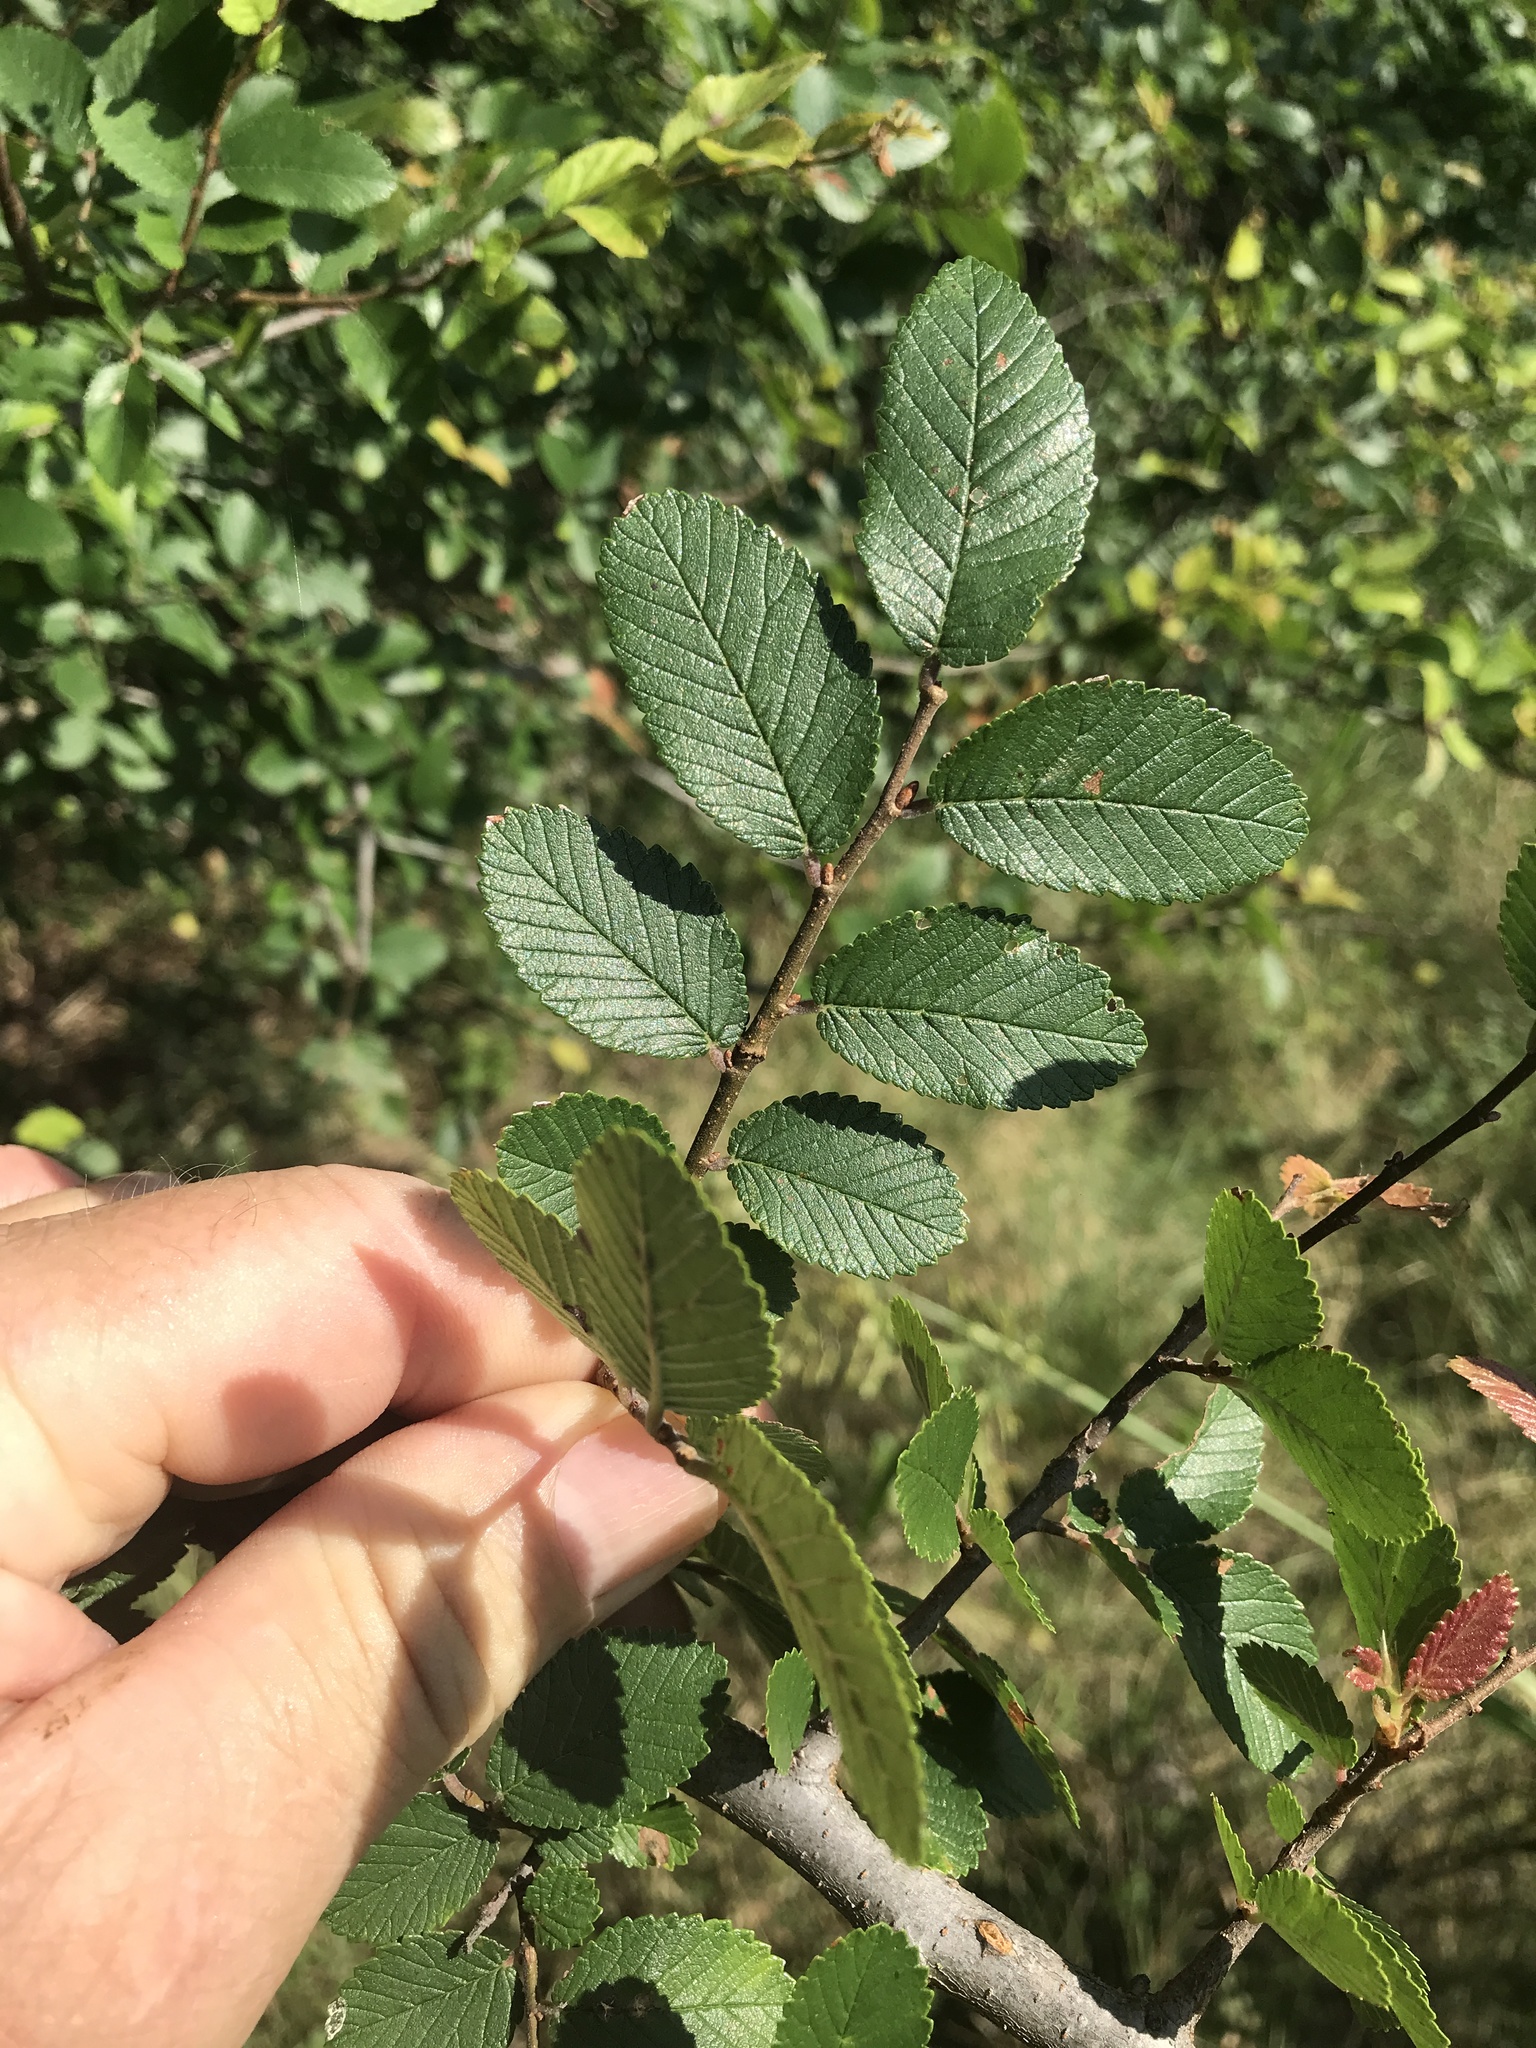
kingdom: Plantae
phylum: Tracheophyta
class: Magnoliopsida
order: Rosales
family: Ulmaceae
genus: Ulmus
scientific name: Ulmus crassifolia
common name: Basket elm
